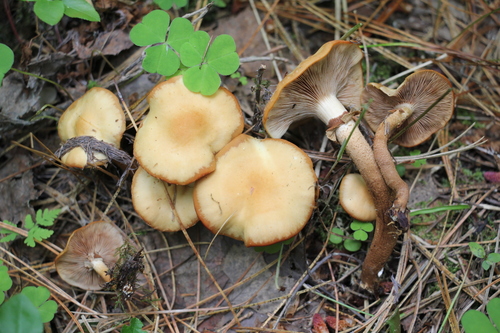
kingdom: Fungi
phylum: Basidiomycota
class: Agaricomycetes
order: Agaricales
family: Strophariaceae
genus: Kuehneromyces
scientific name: Kuehneromyces mutabilis
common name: Sheathed woodtuft
